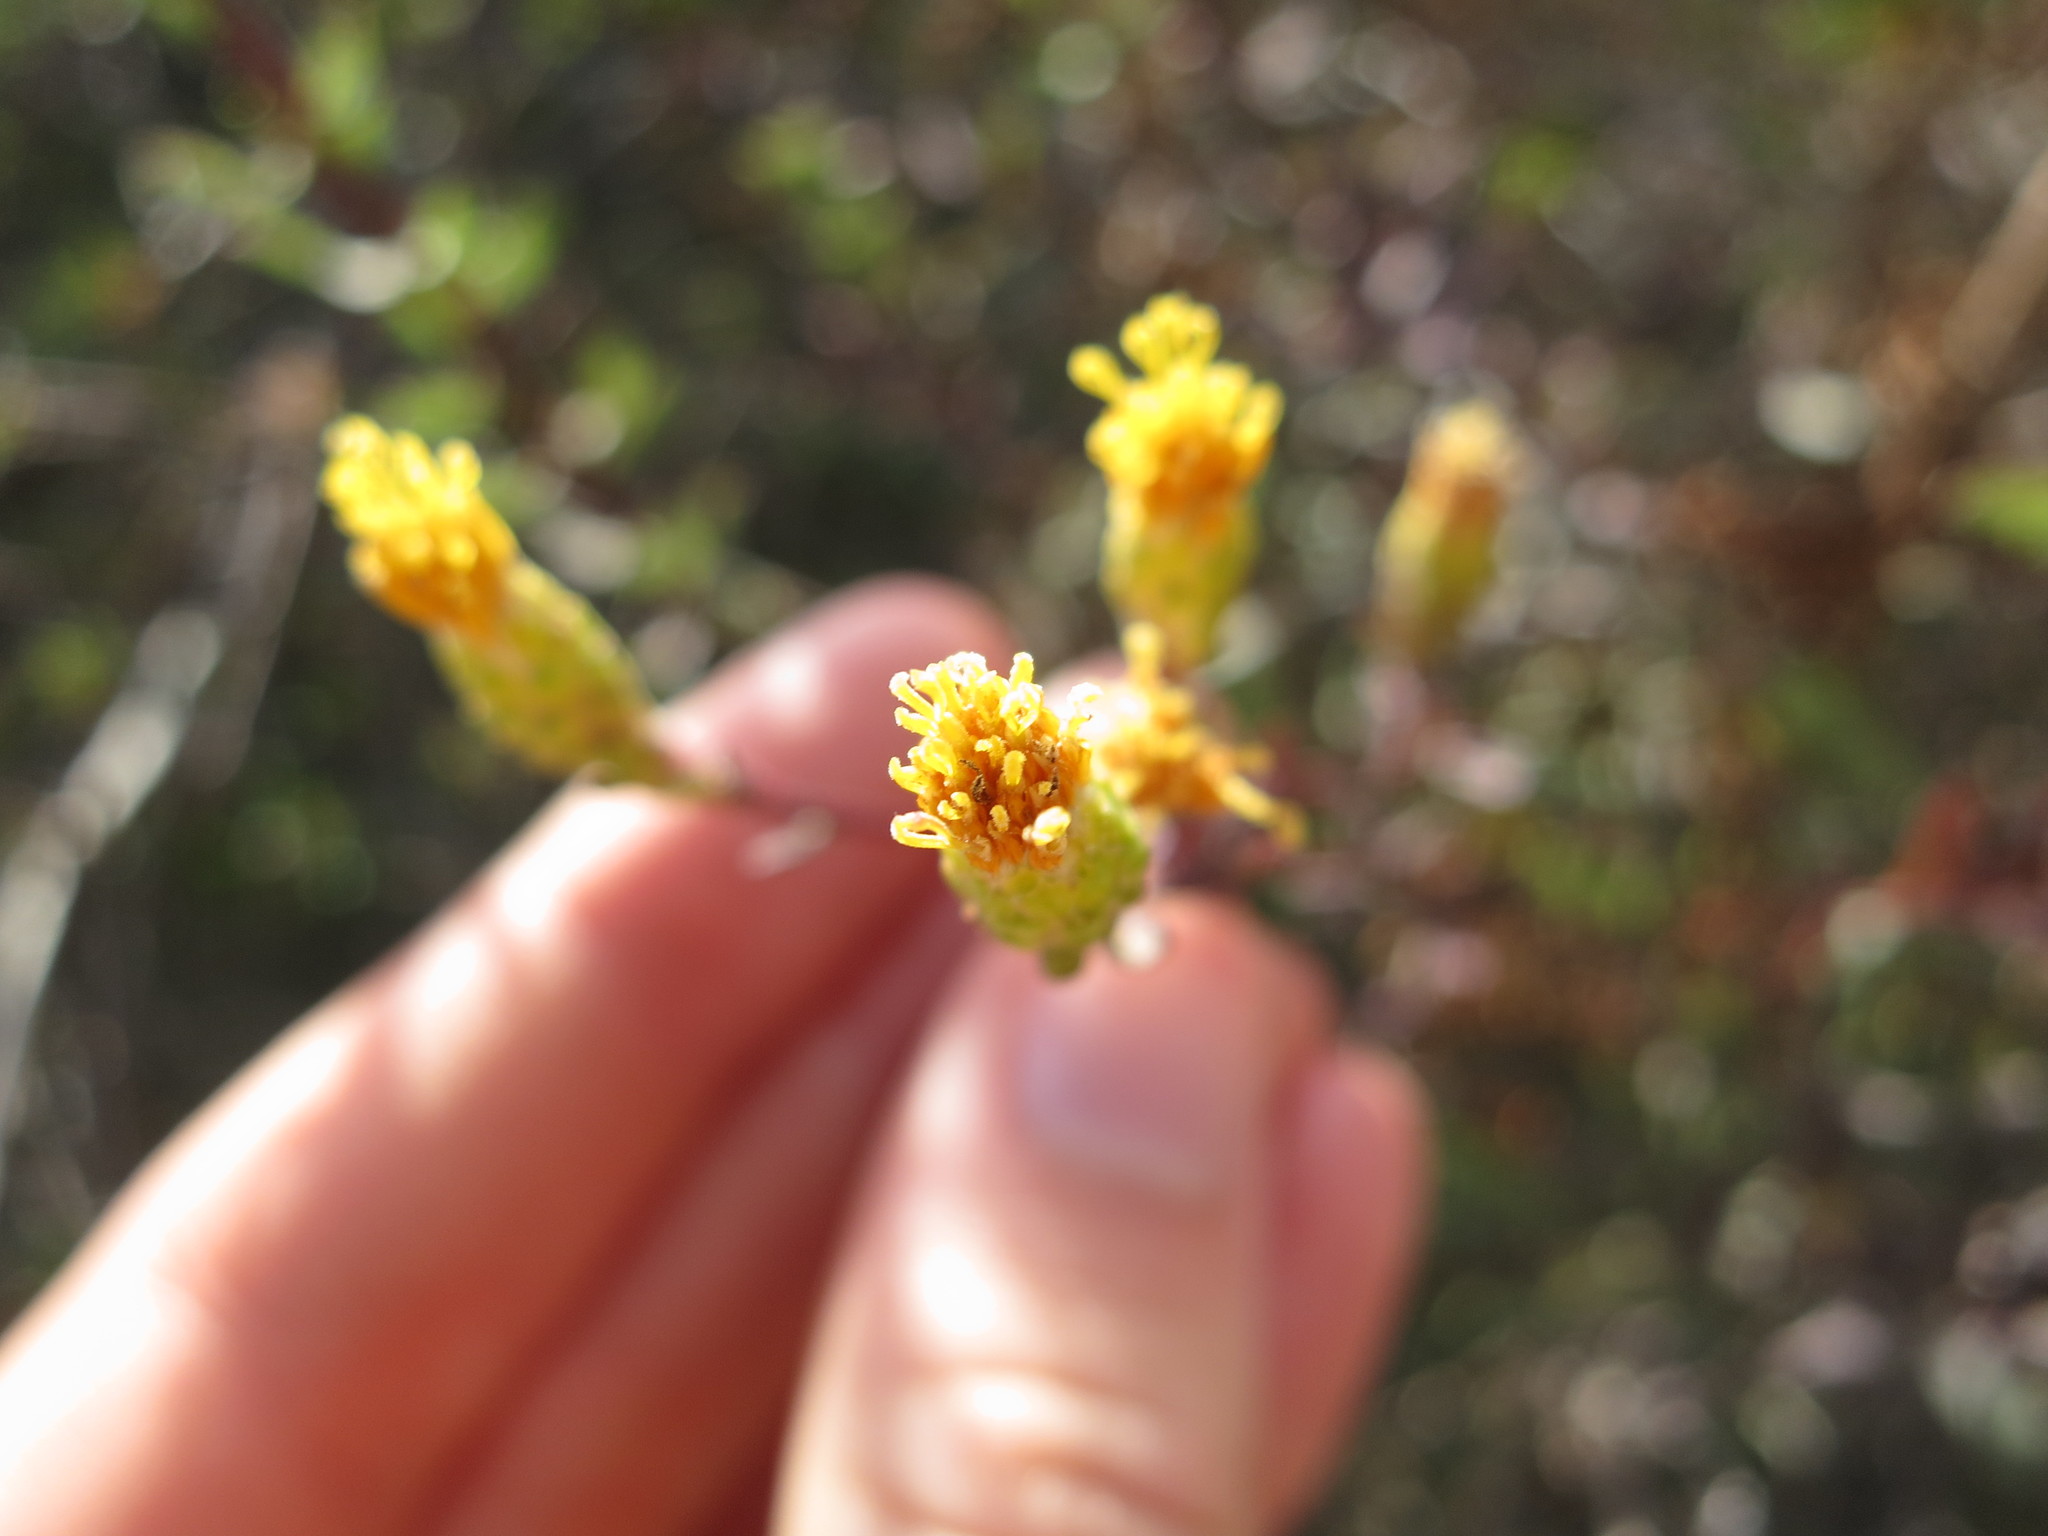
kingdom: Plantae
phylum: Tracheophyta
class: Magnoliopsida
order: Asterales
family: Asteraceae
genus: Isocoma
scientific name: Isocoma menziesii
